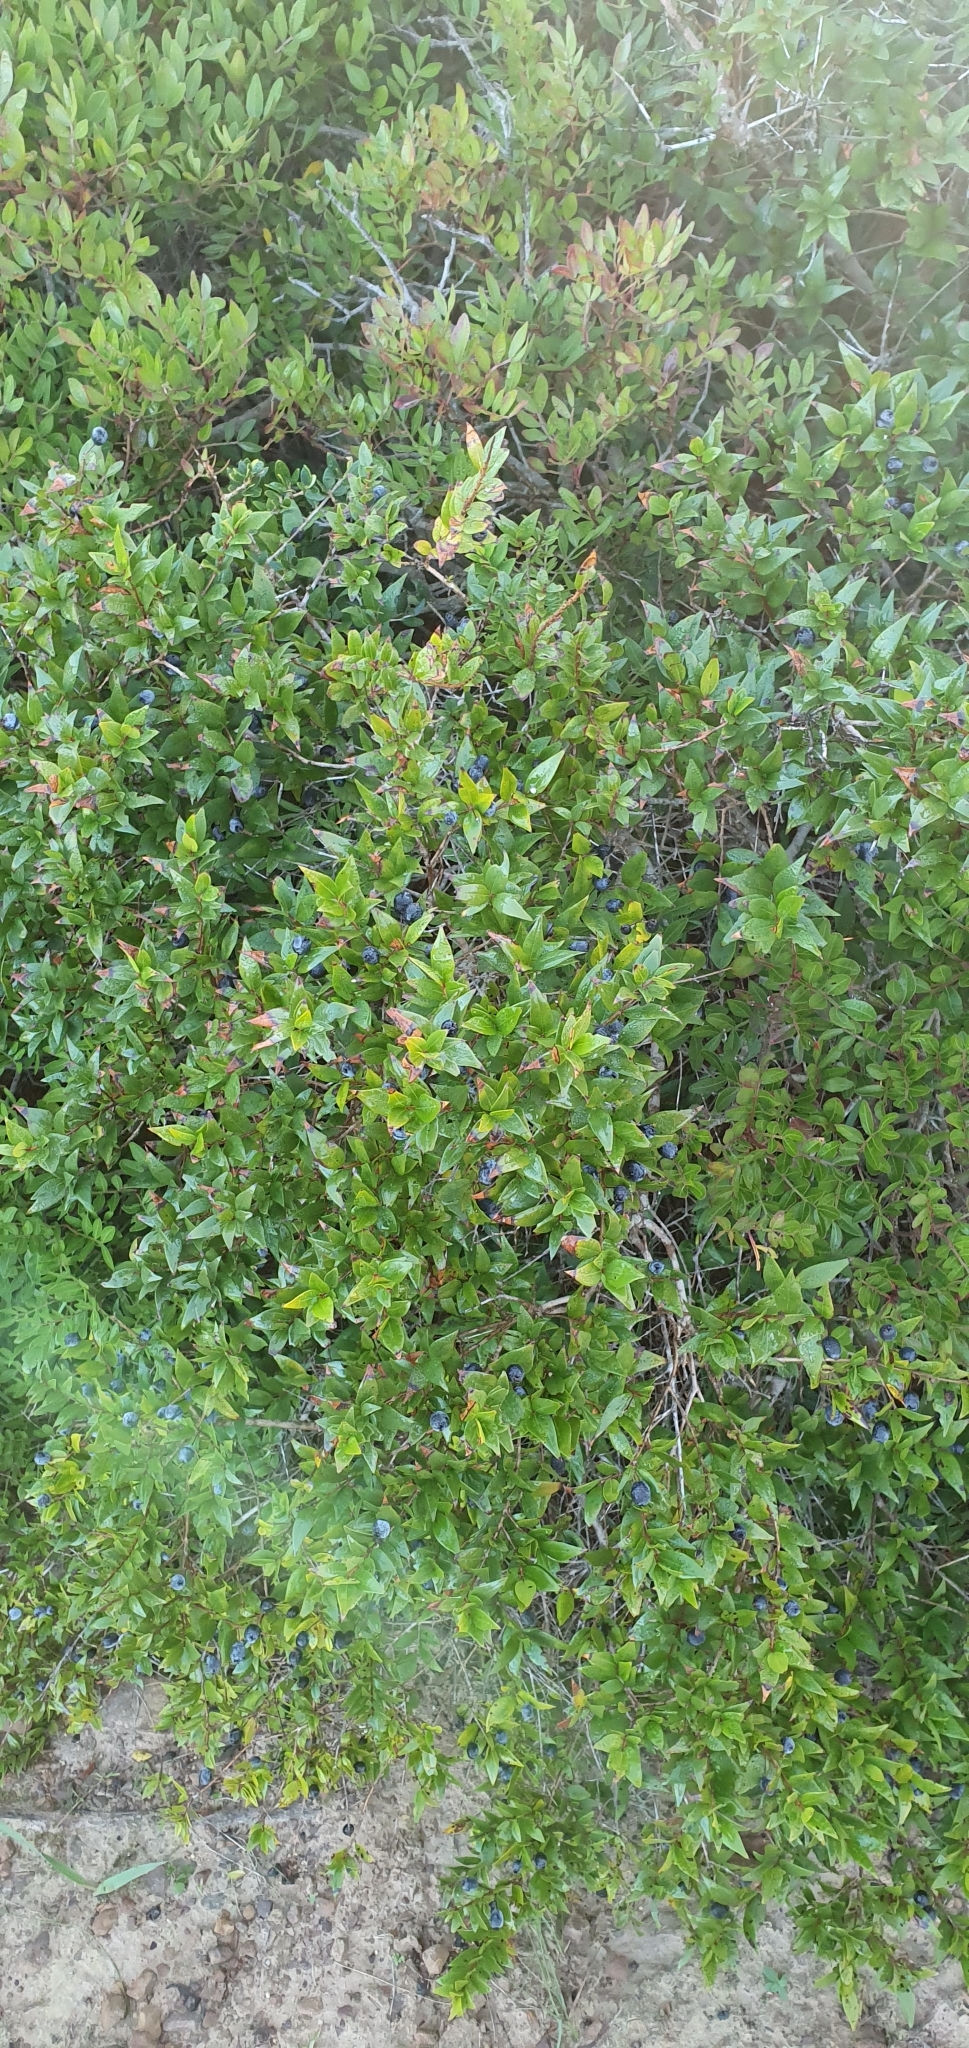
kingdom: Plantae
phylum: Tracheophyta
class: Magnoliopsida
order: Myrtales
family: Myrtaceae
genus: Myrtus
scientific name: Myrtus communis
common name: Myrtle
